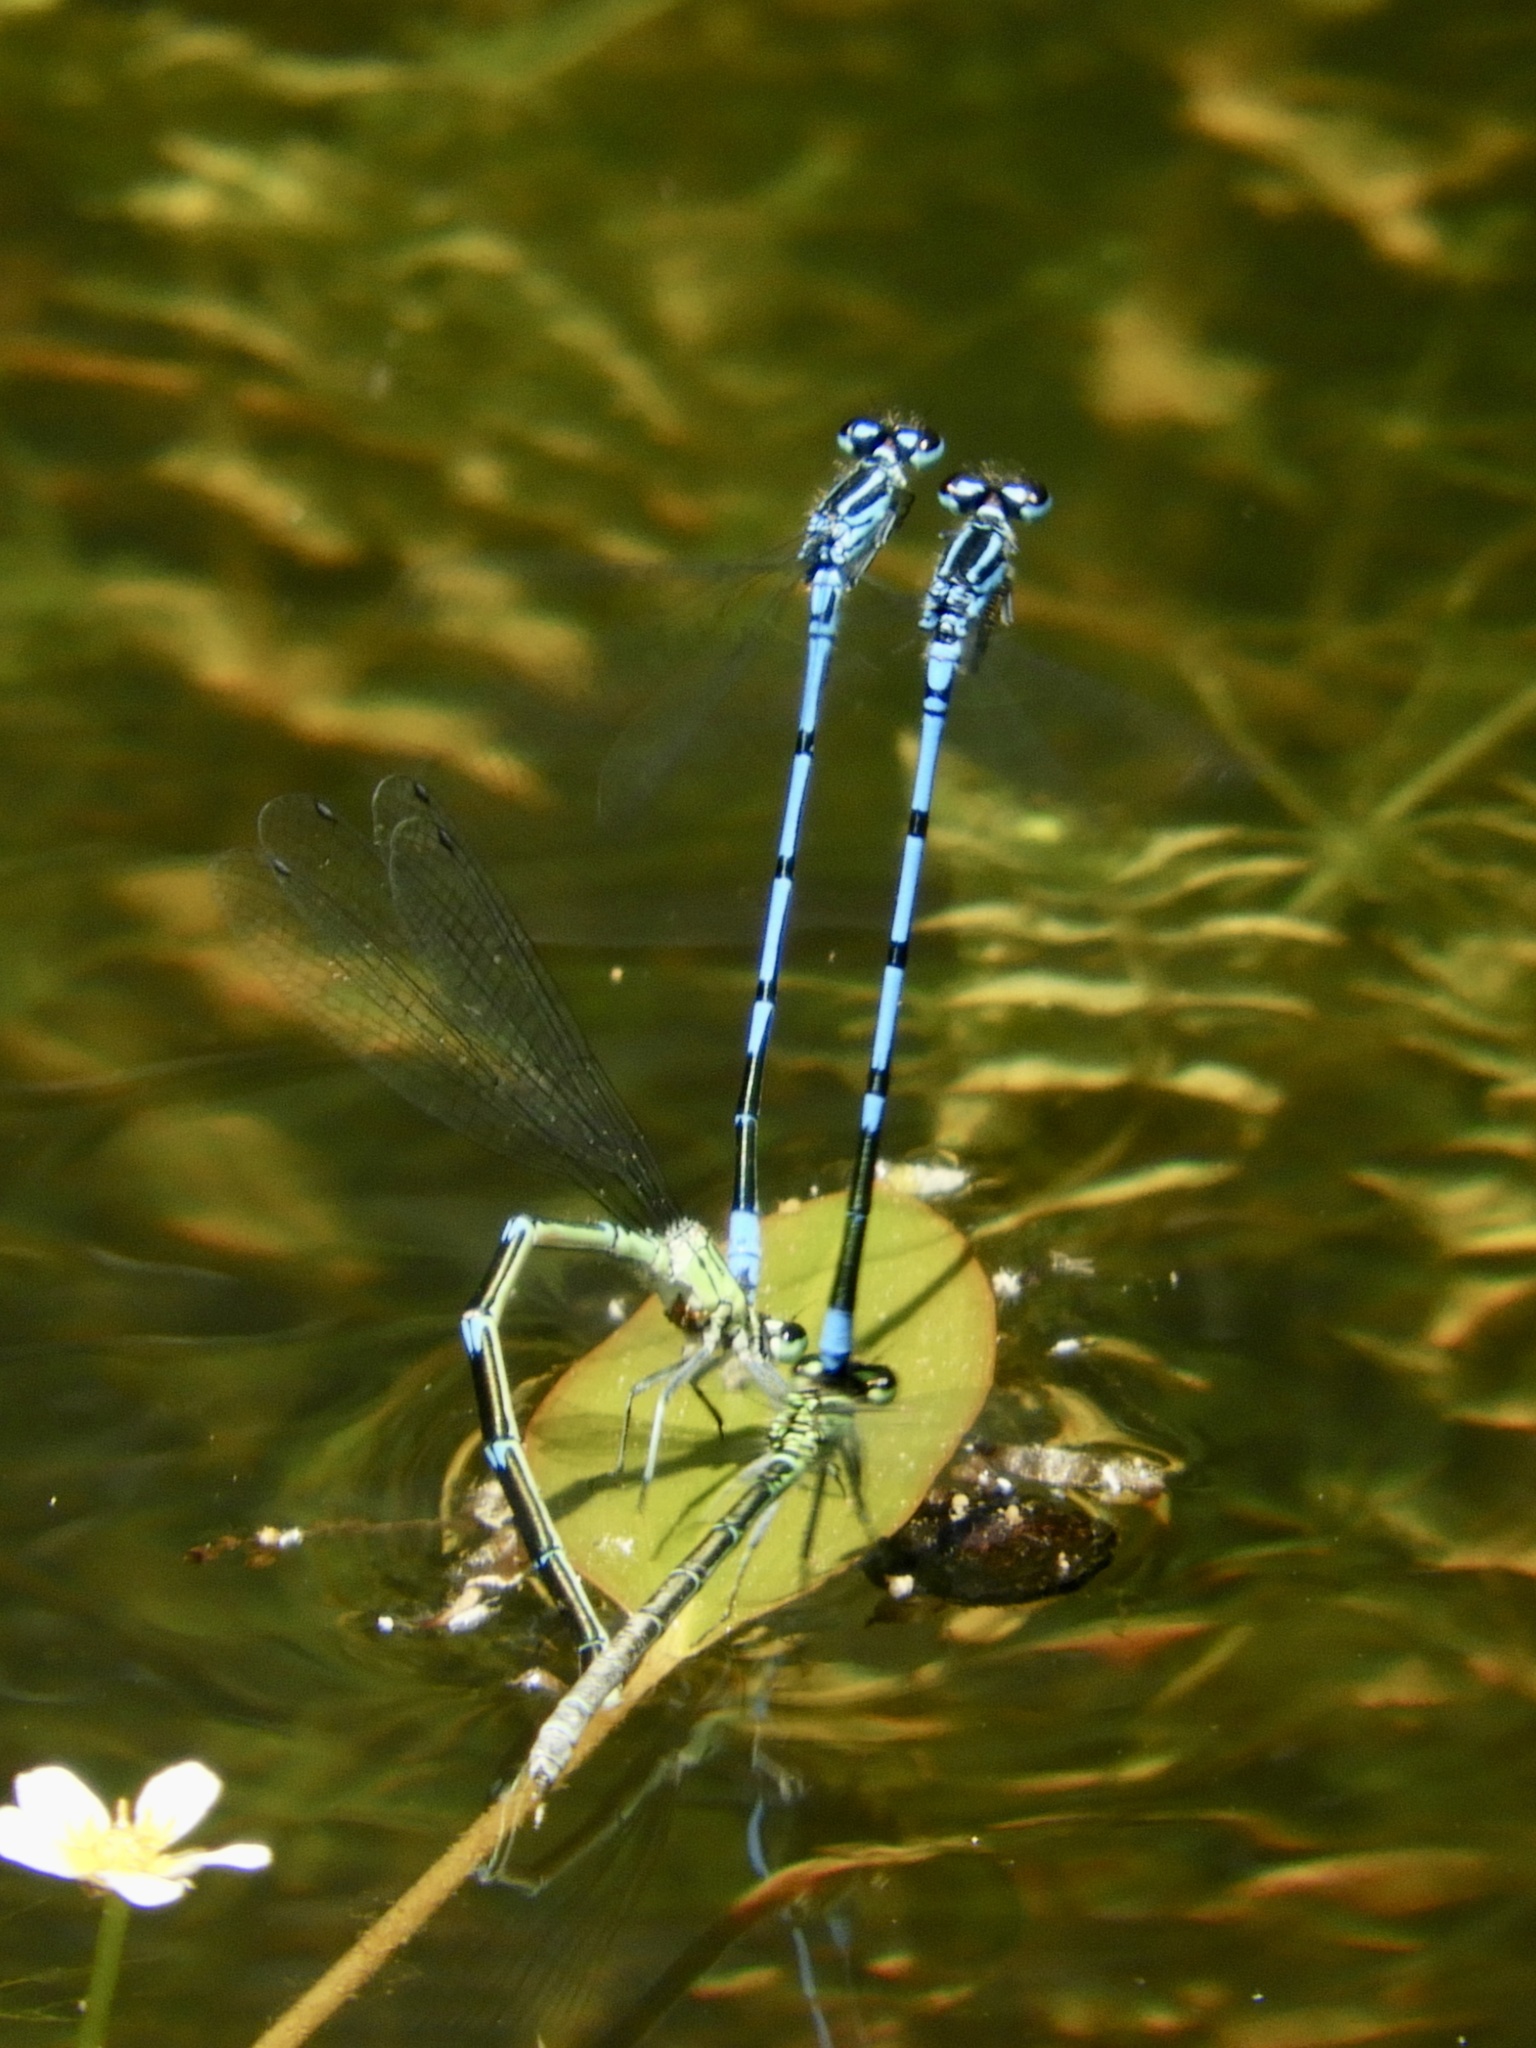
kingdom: Animalia
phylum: Arthropoda
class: Insecta
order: Odonata
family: Coenagrionidae
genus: Coenagrion
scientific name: Coenagrion puella
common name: Azure damselfly
